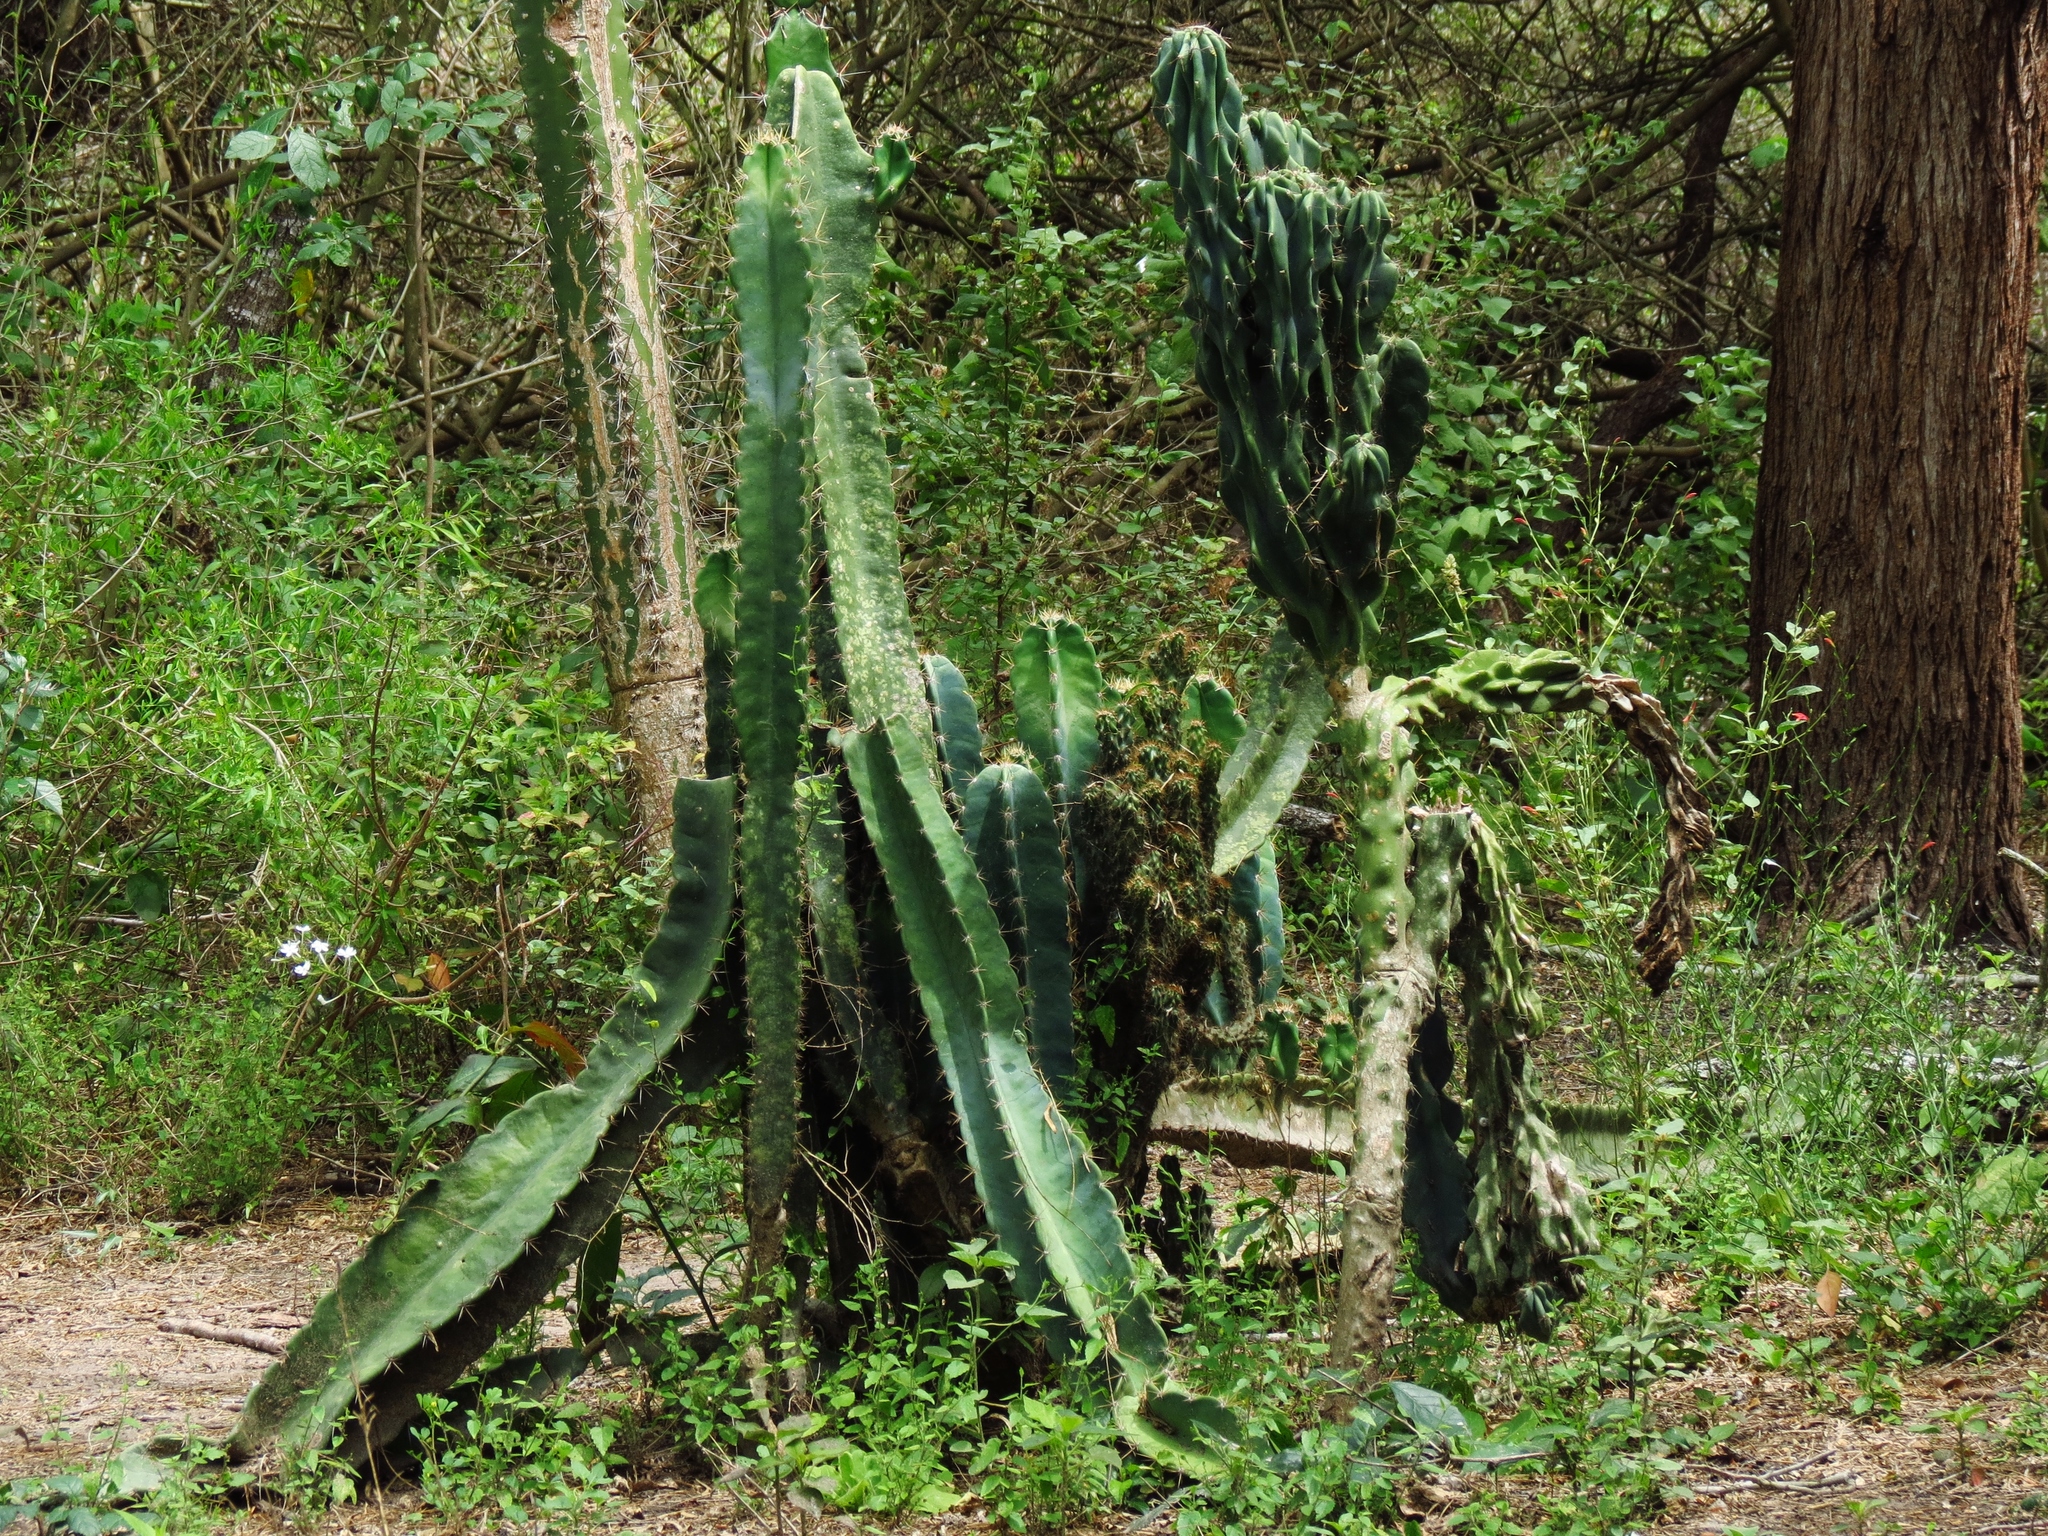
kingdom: Plantae
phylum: Tracheophyta
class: Magnoliopsida
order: Caryophyllales
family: Cactaceae
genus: Acanthocereus
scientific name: Acanthocereus tetragonus
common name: Triangle cactus
